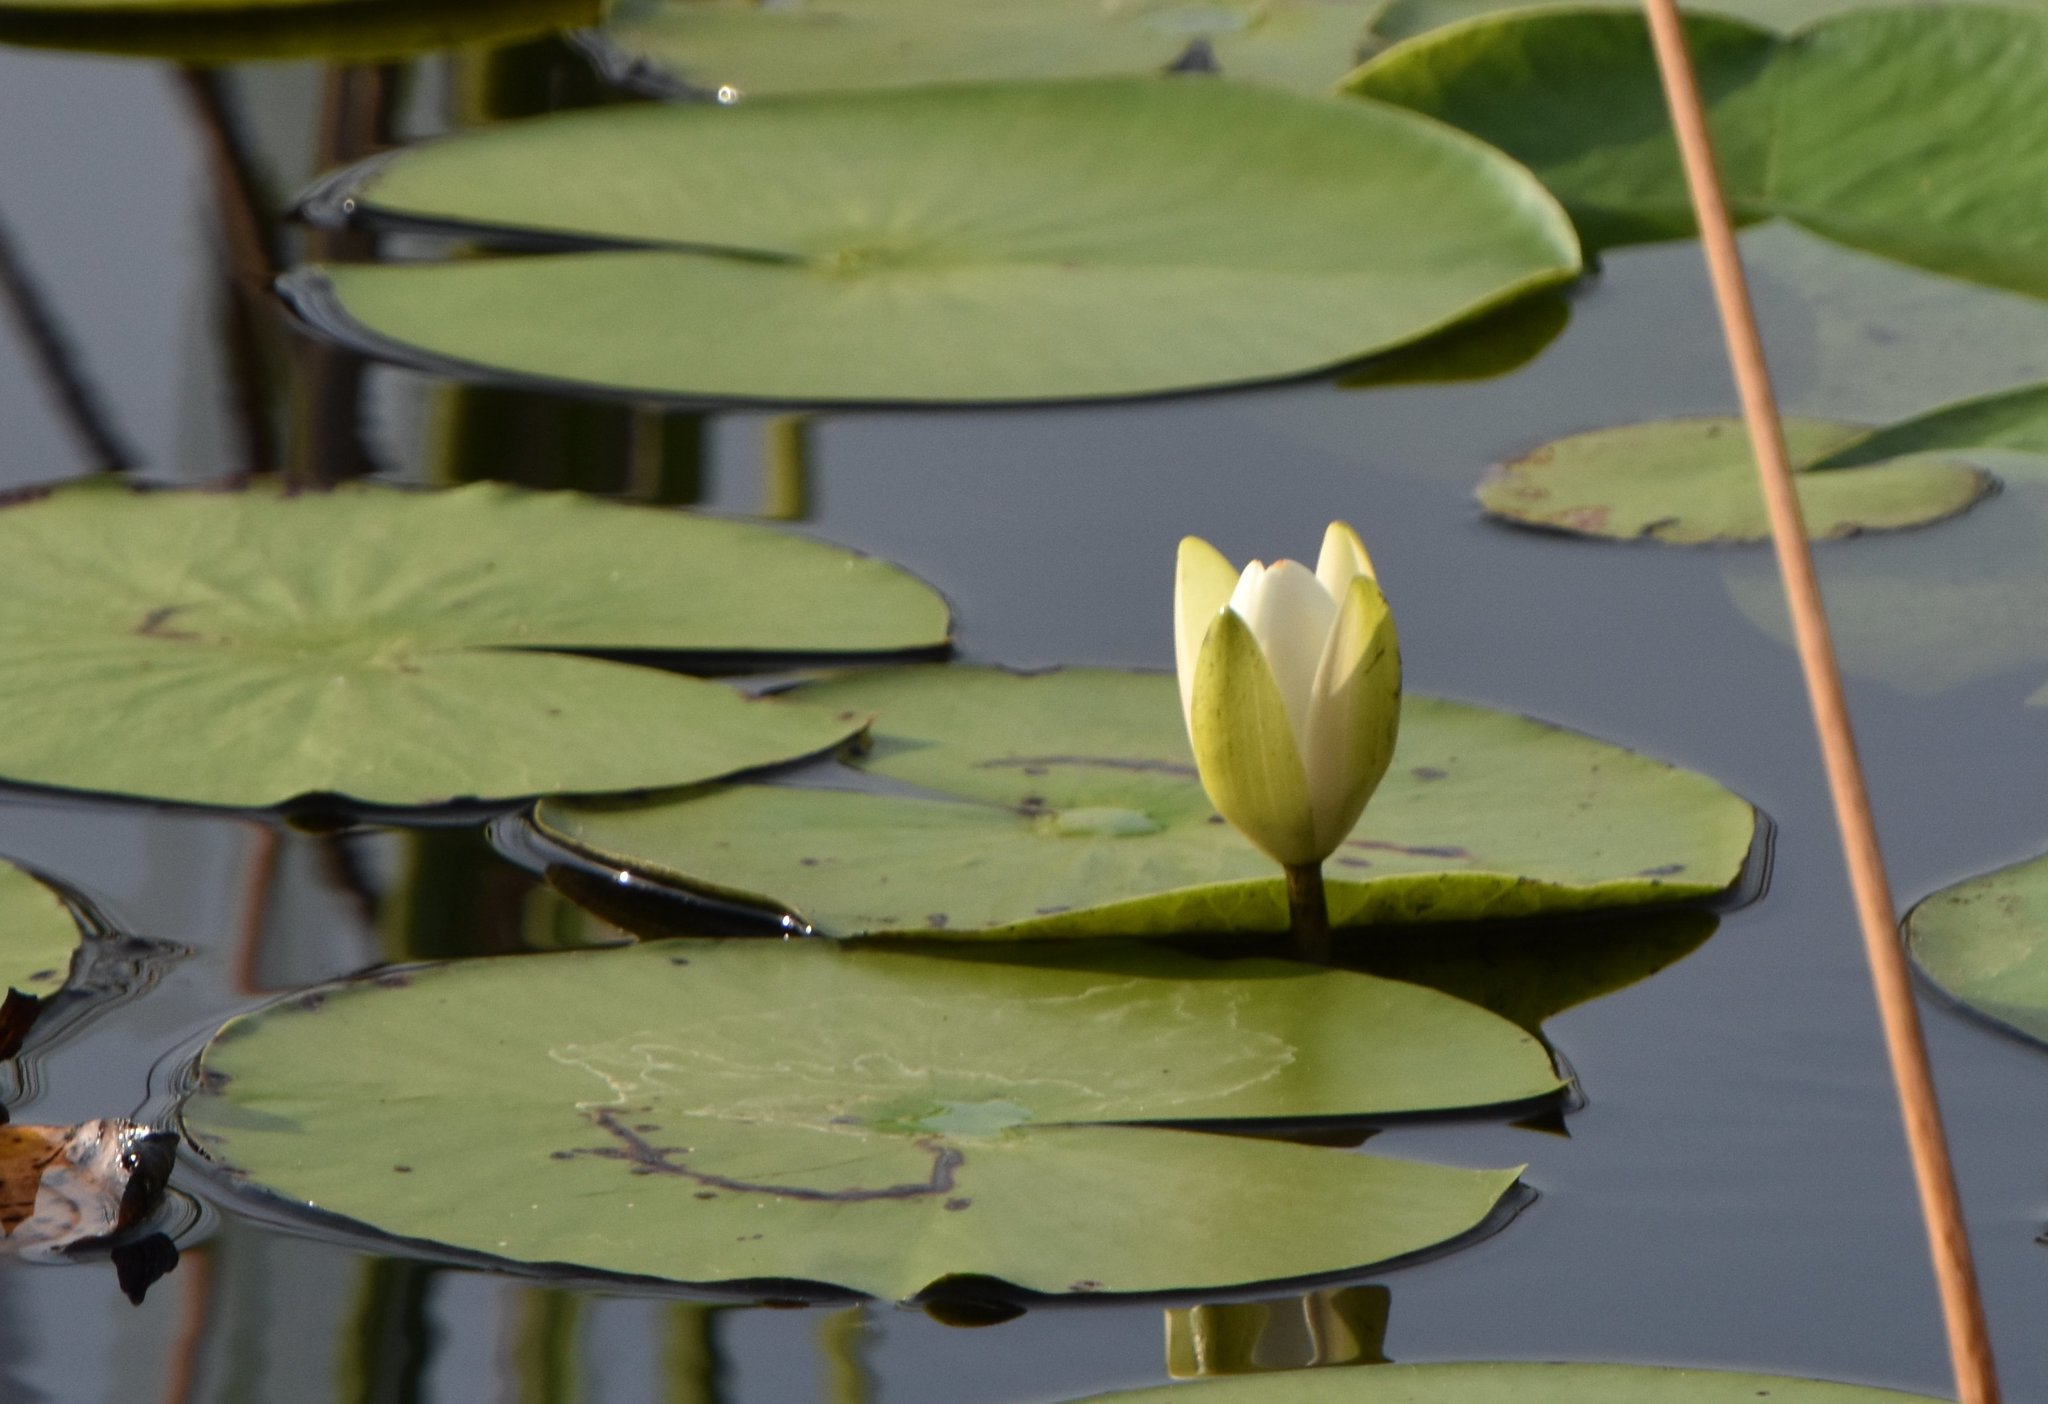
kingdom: Plantae
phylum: Tracheophyta
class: Magnoliopsida
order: Nymphaeales
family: Nymphaeaceae
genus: Nymphaea
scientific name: Nymphaea odorata
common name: Fragrant water-lily
